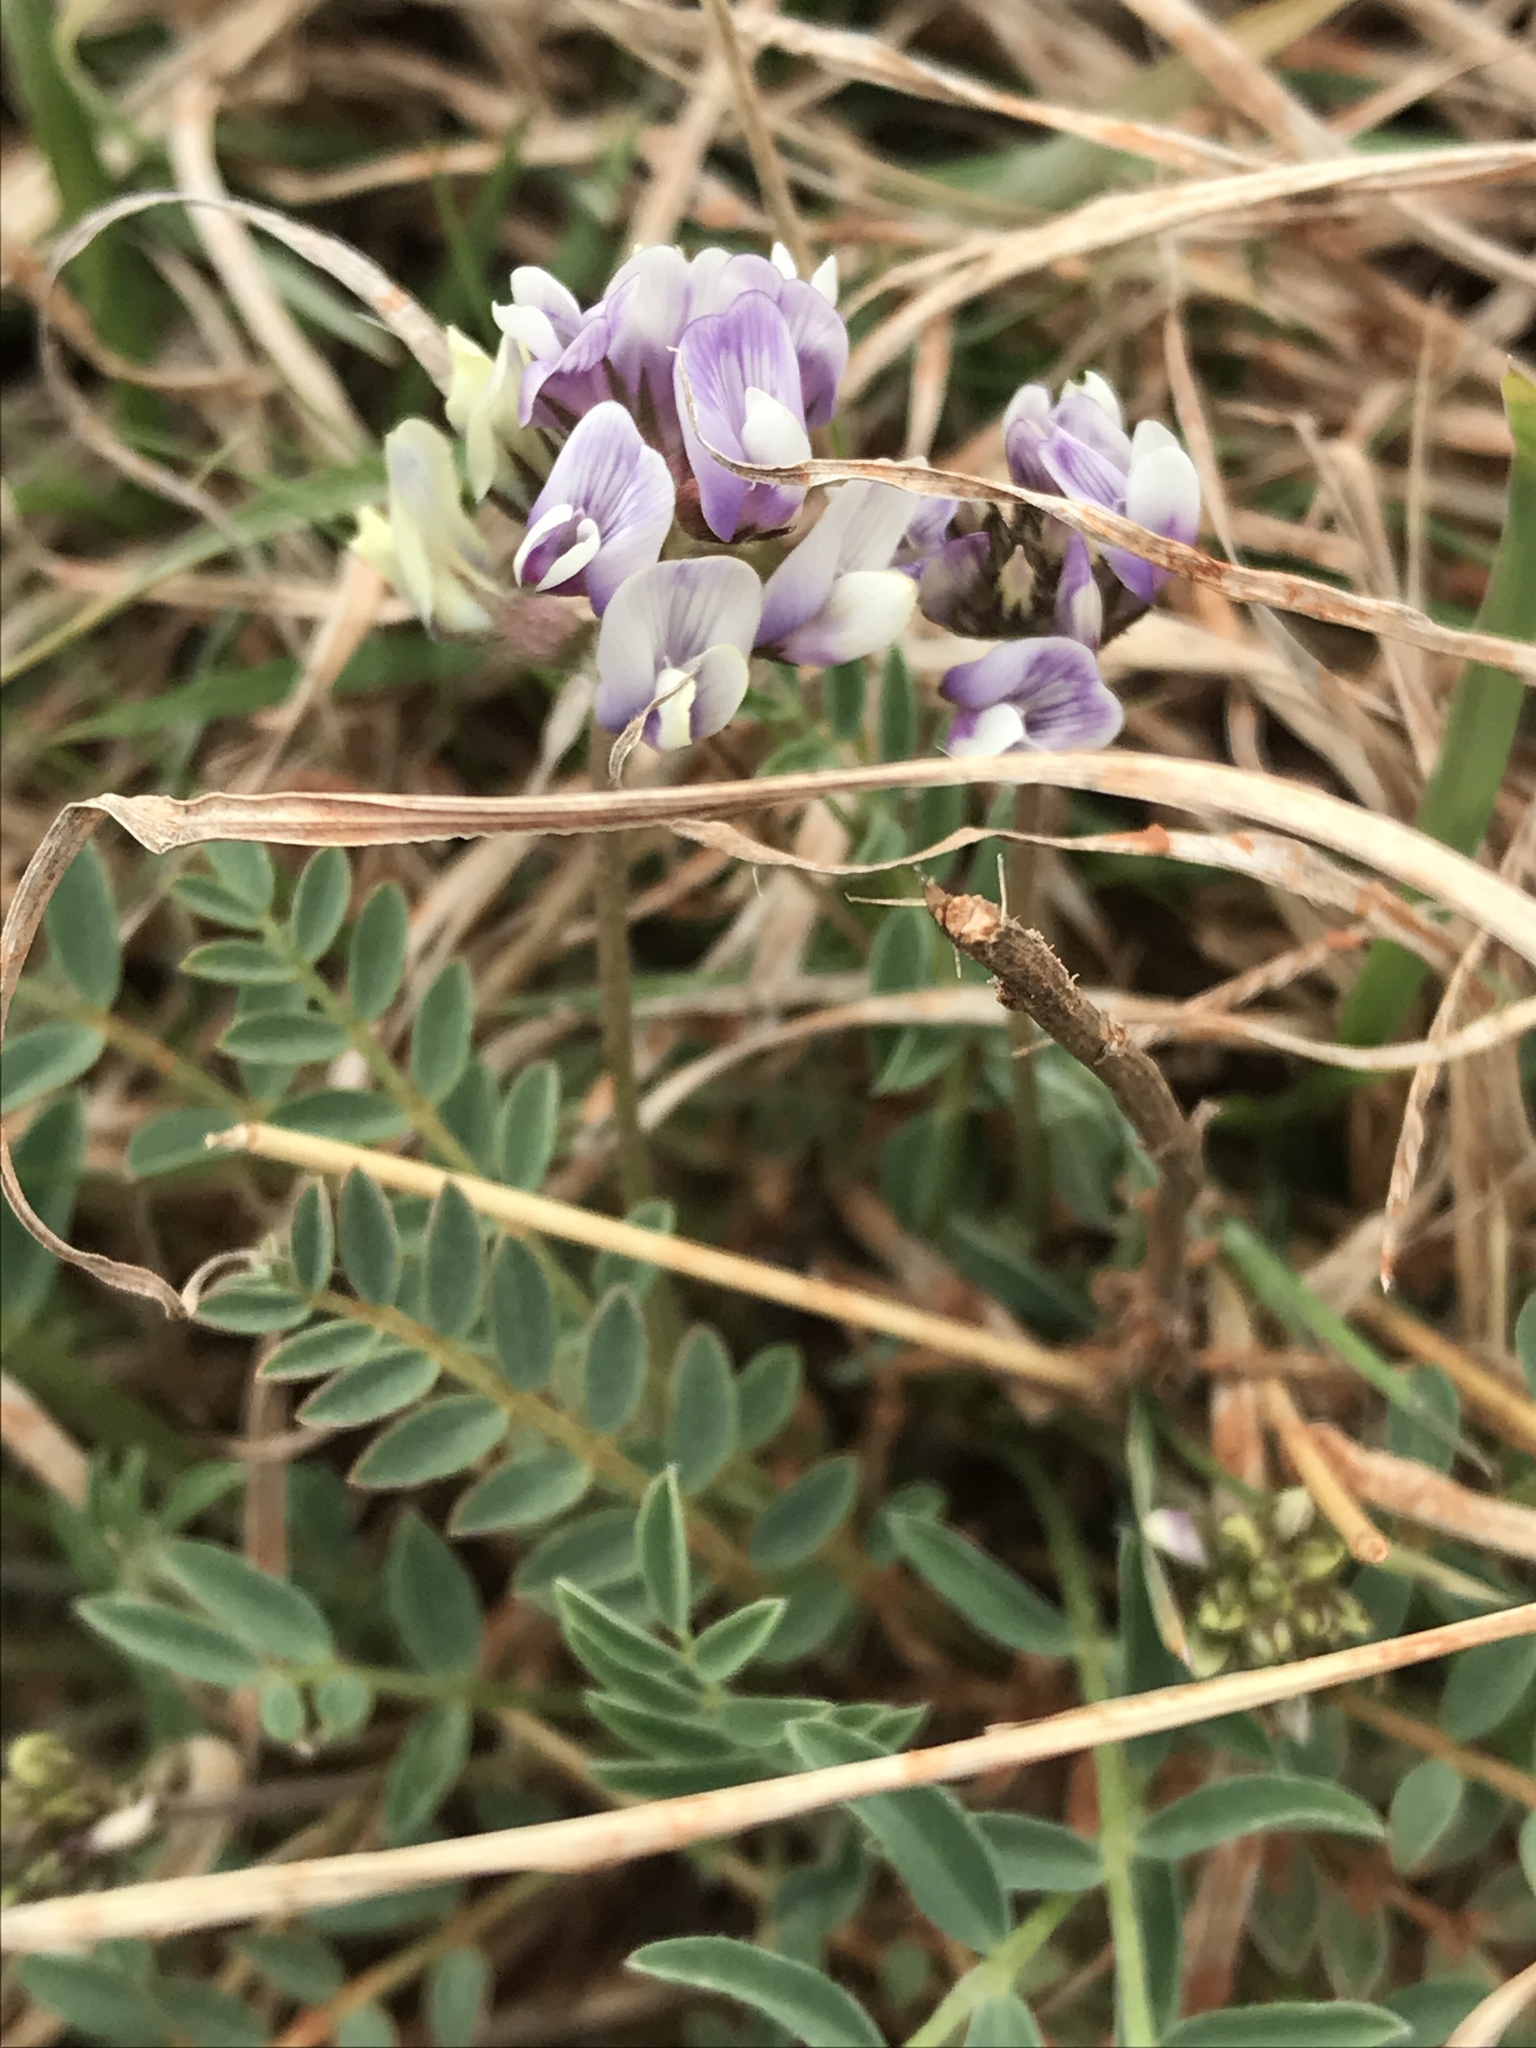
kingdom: Plantae
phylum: Tracheophyta
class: Magnoliopsida
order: Fabales
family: Fabaceae
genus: Astragalus
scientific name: Astragalus lotiflorus
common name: Lotus milk-vetch
